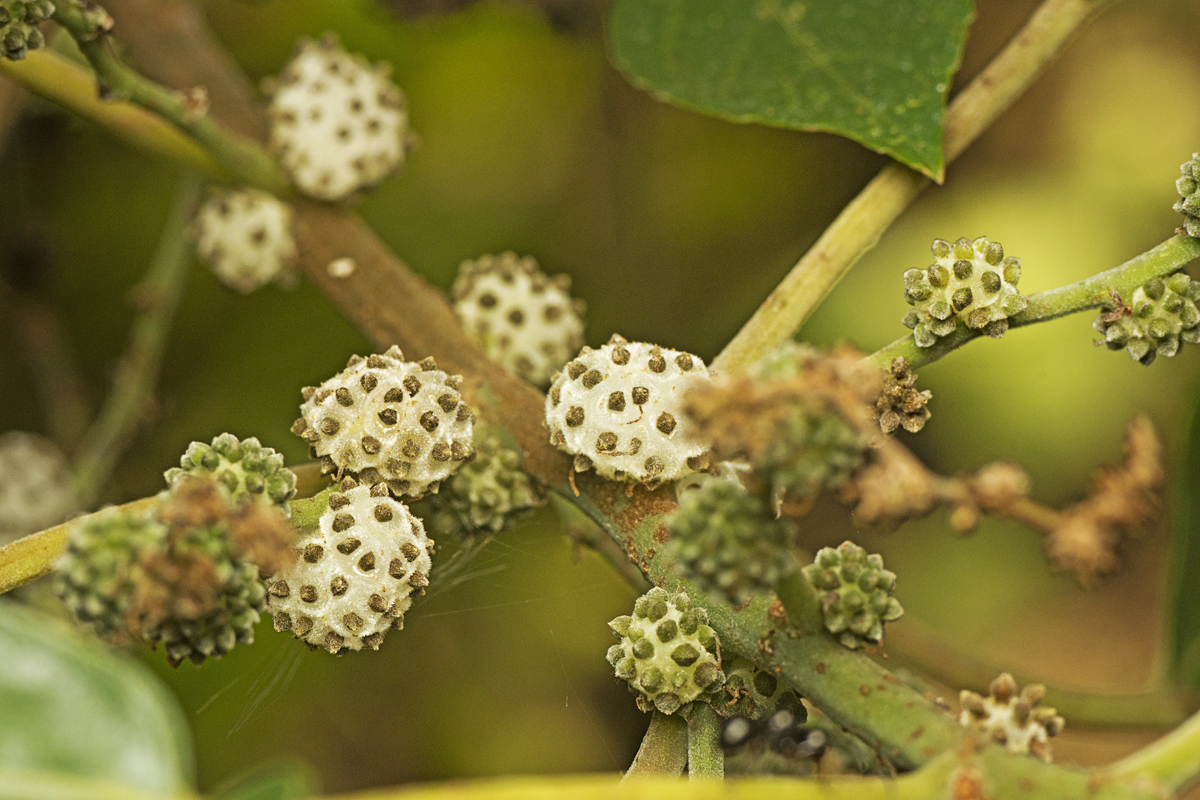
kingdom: Plantae
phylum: Tracheophyta
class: Magnoliopsida
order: Rosales
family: Urticaceae
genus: Pipturus
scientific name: Pipturus argenteus
